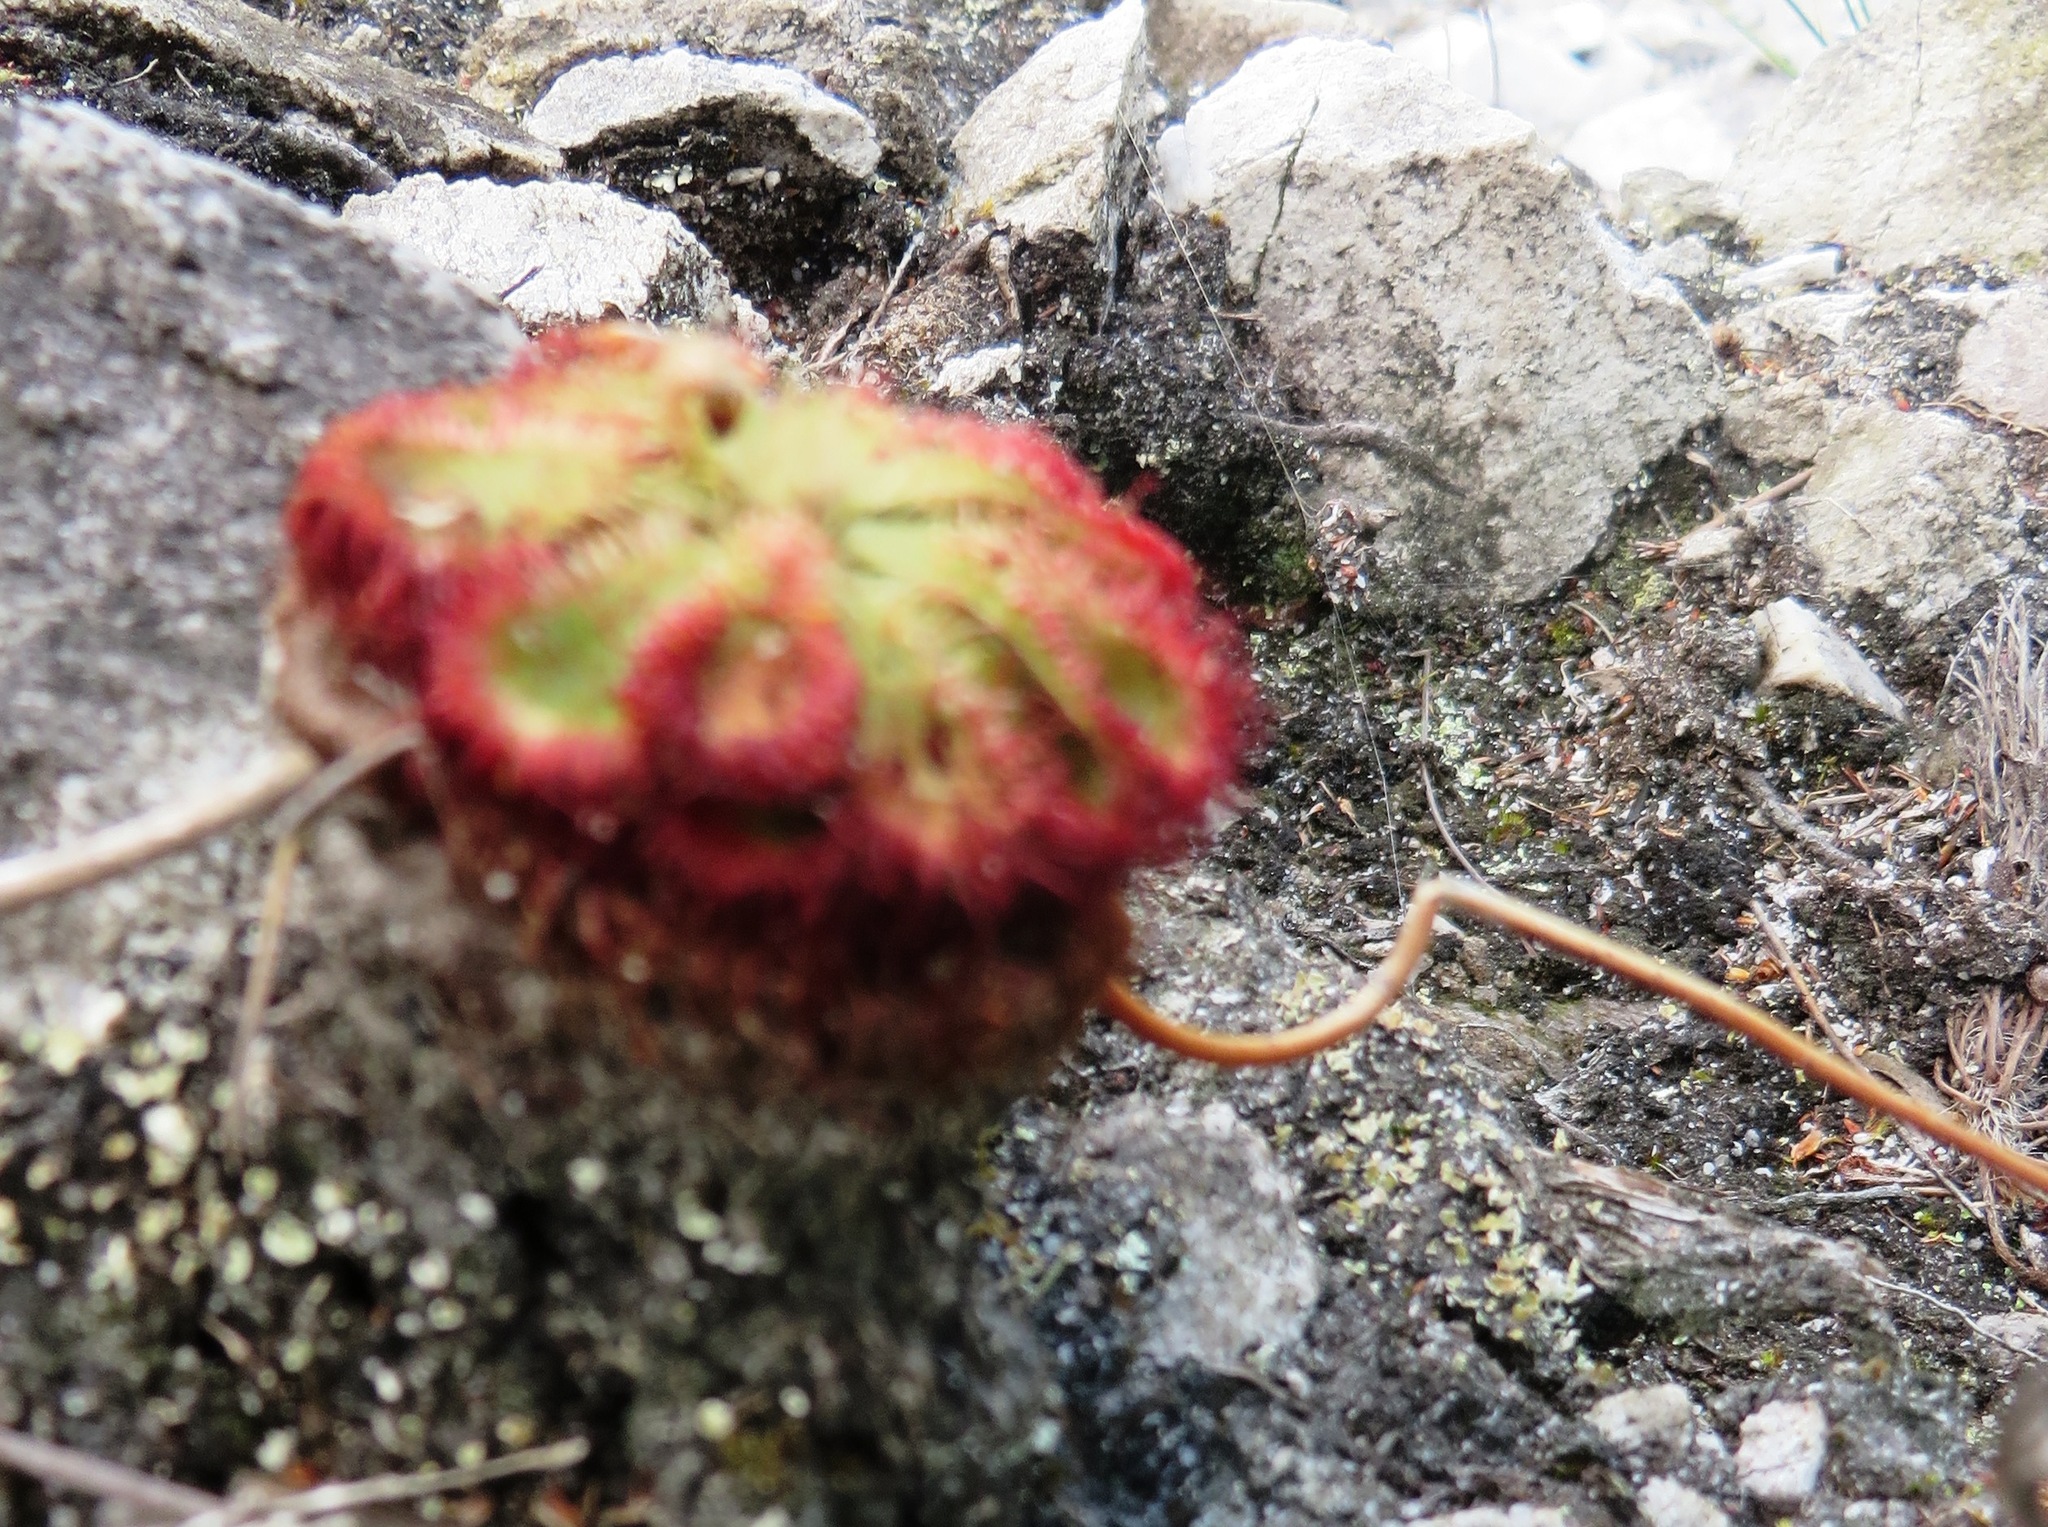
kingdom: Plantae
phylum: Tracheophyta
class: Magnoliopsida
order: Caryophyllales
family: Droseraceae
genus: Drosera
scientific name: Drosera xerophila
